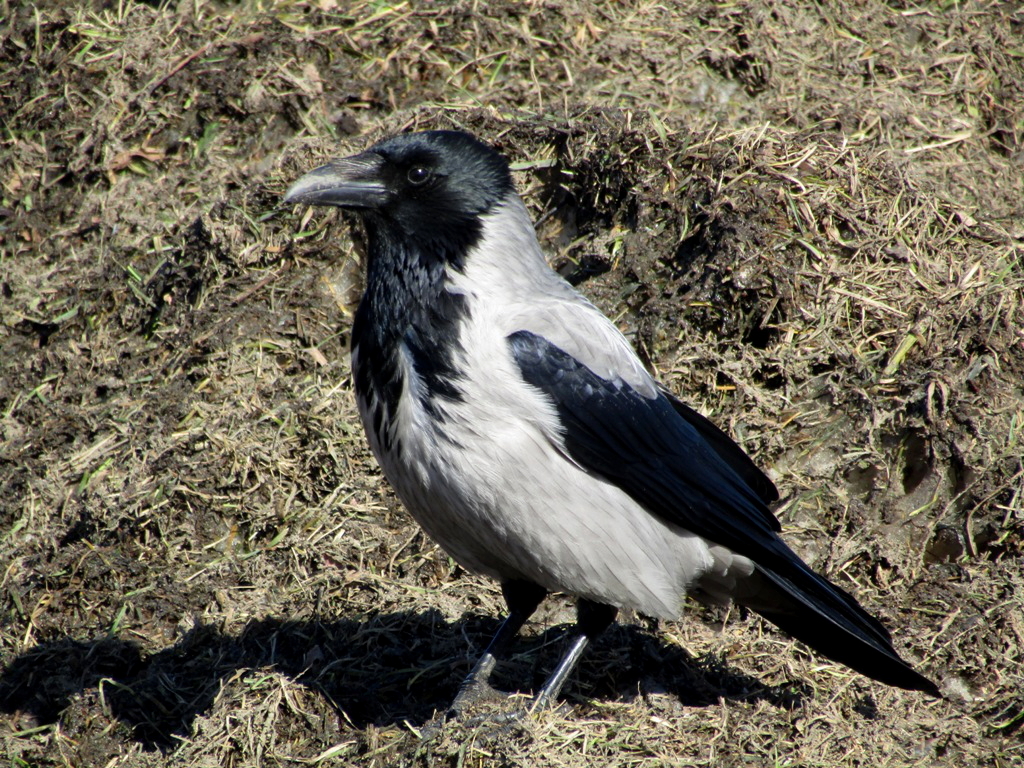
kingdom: Animalia
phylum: Chordata
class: Aves
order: Passeriformes
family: Corvidae
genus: Corvus
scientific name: Corvus cornix
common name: Hooded crow
